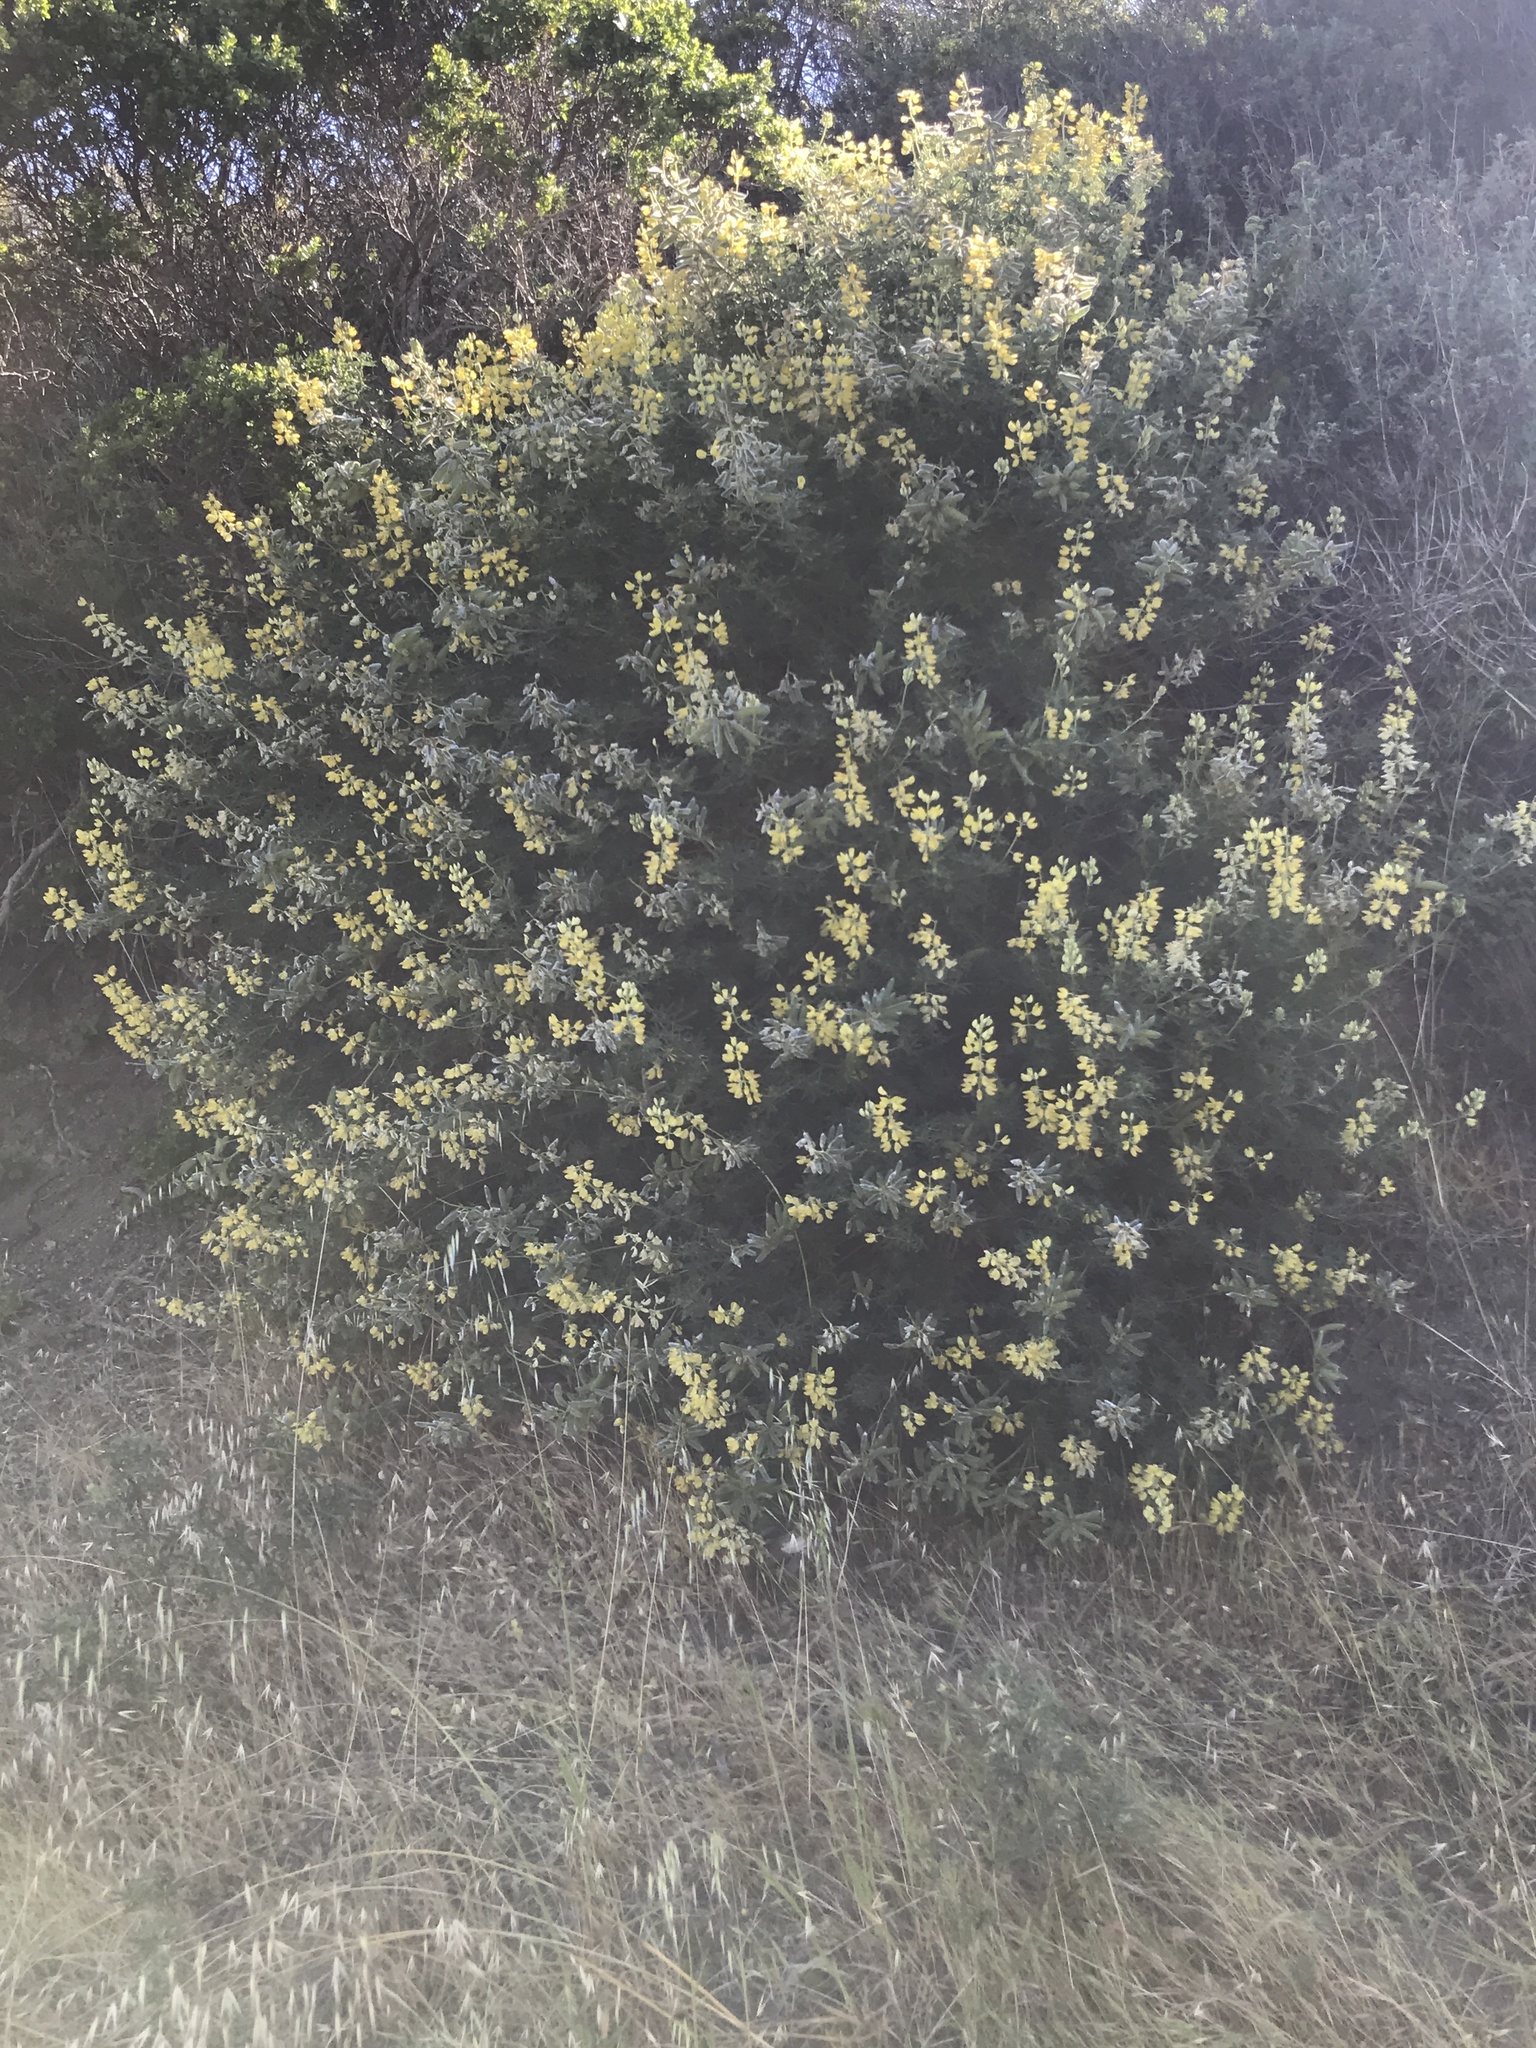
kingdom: Plantae
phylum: Tracheophyta
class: Magnoliopsida
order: Fabales
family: Fabaceae
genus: Lupinus
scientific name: Lupinus arboreus
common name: Yellow bush lupine
